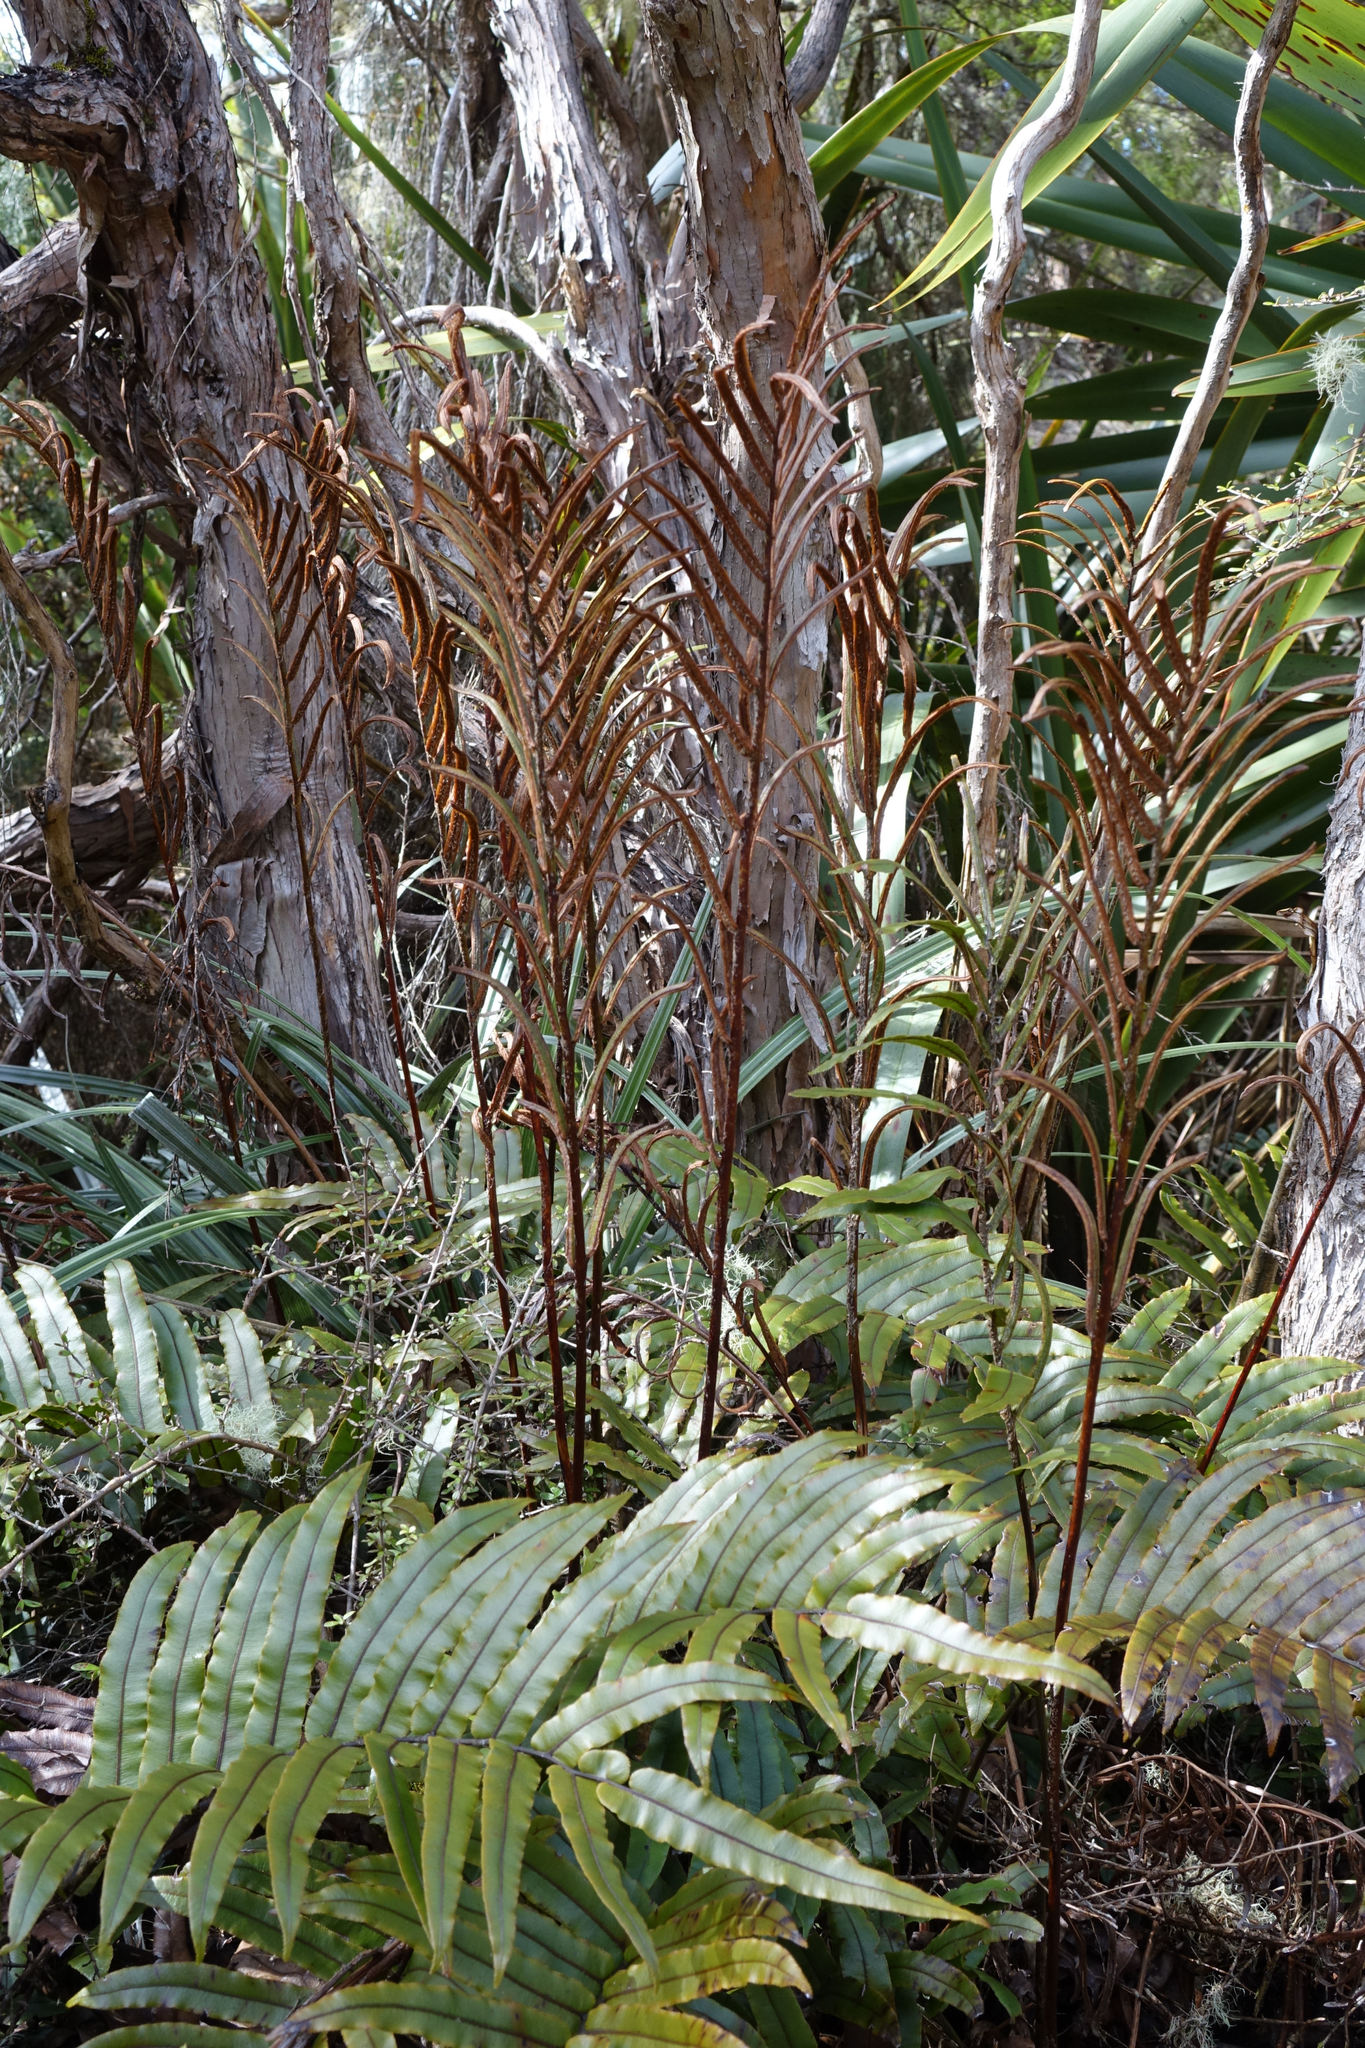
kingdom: Plantae
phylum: Tracheophyta
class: Polypodiopsida
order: Polypodiales
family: Blechnaceae
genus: Parablechnum
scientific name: Parablechnum montanum
